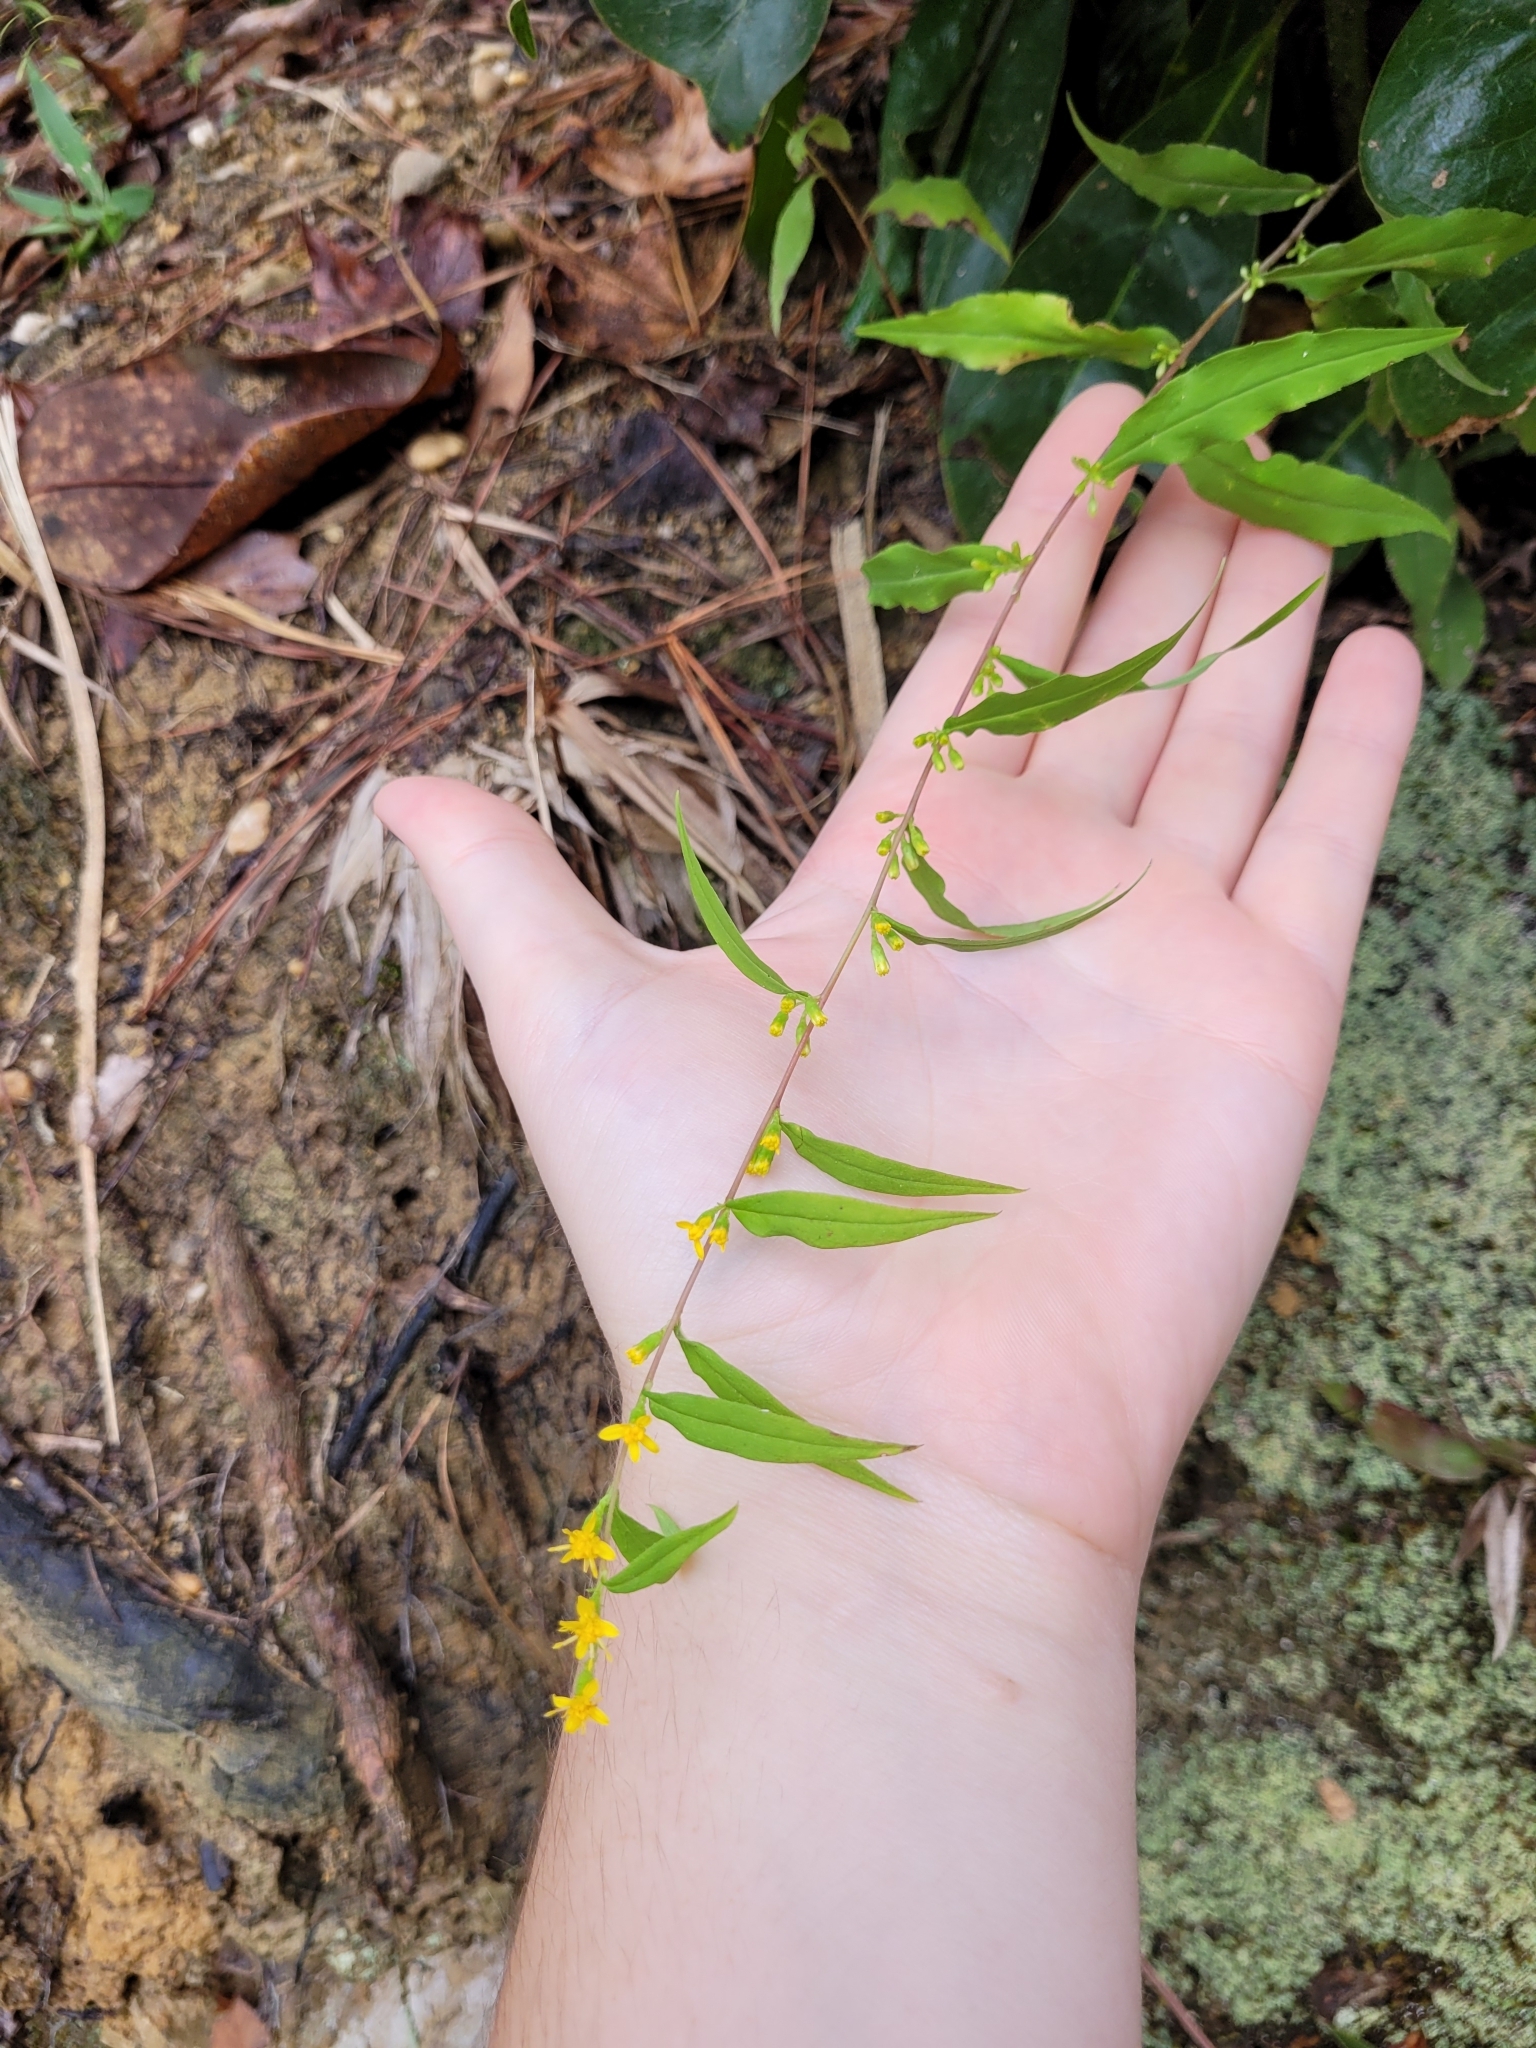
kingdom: Plantae
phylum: Tracheophyta
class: Magnoliopsida
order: Asterales
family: Asteraceae
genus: Solidago
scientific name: Solidago caesia
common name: Woodland goldenrod
